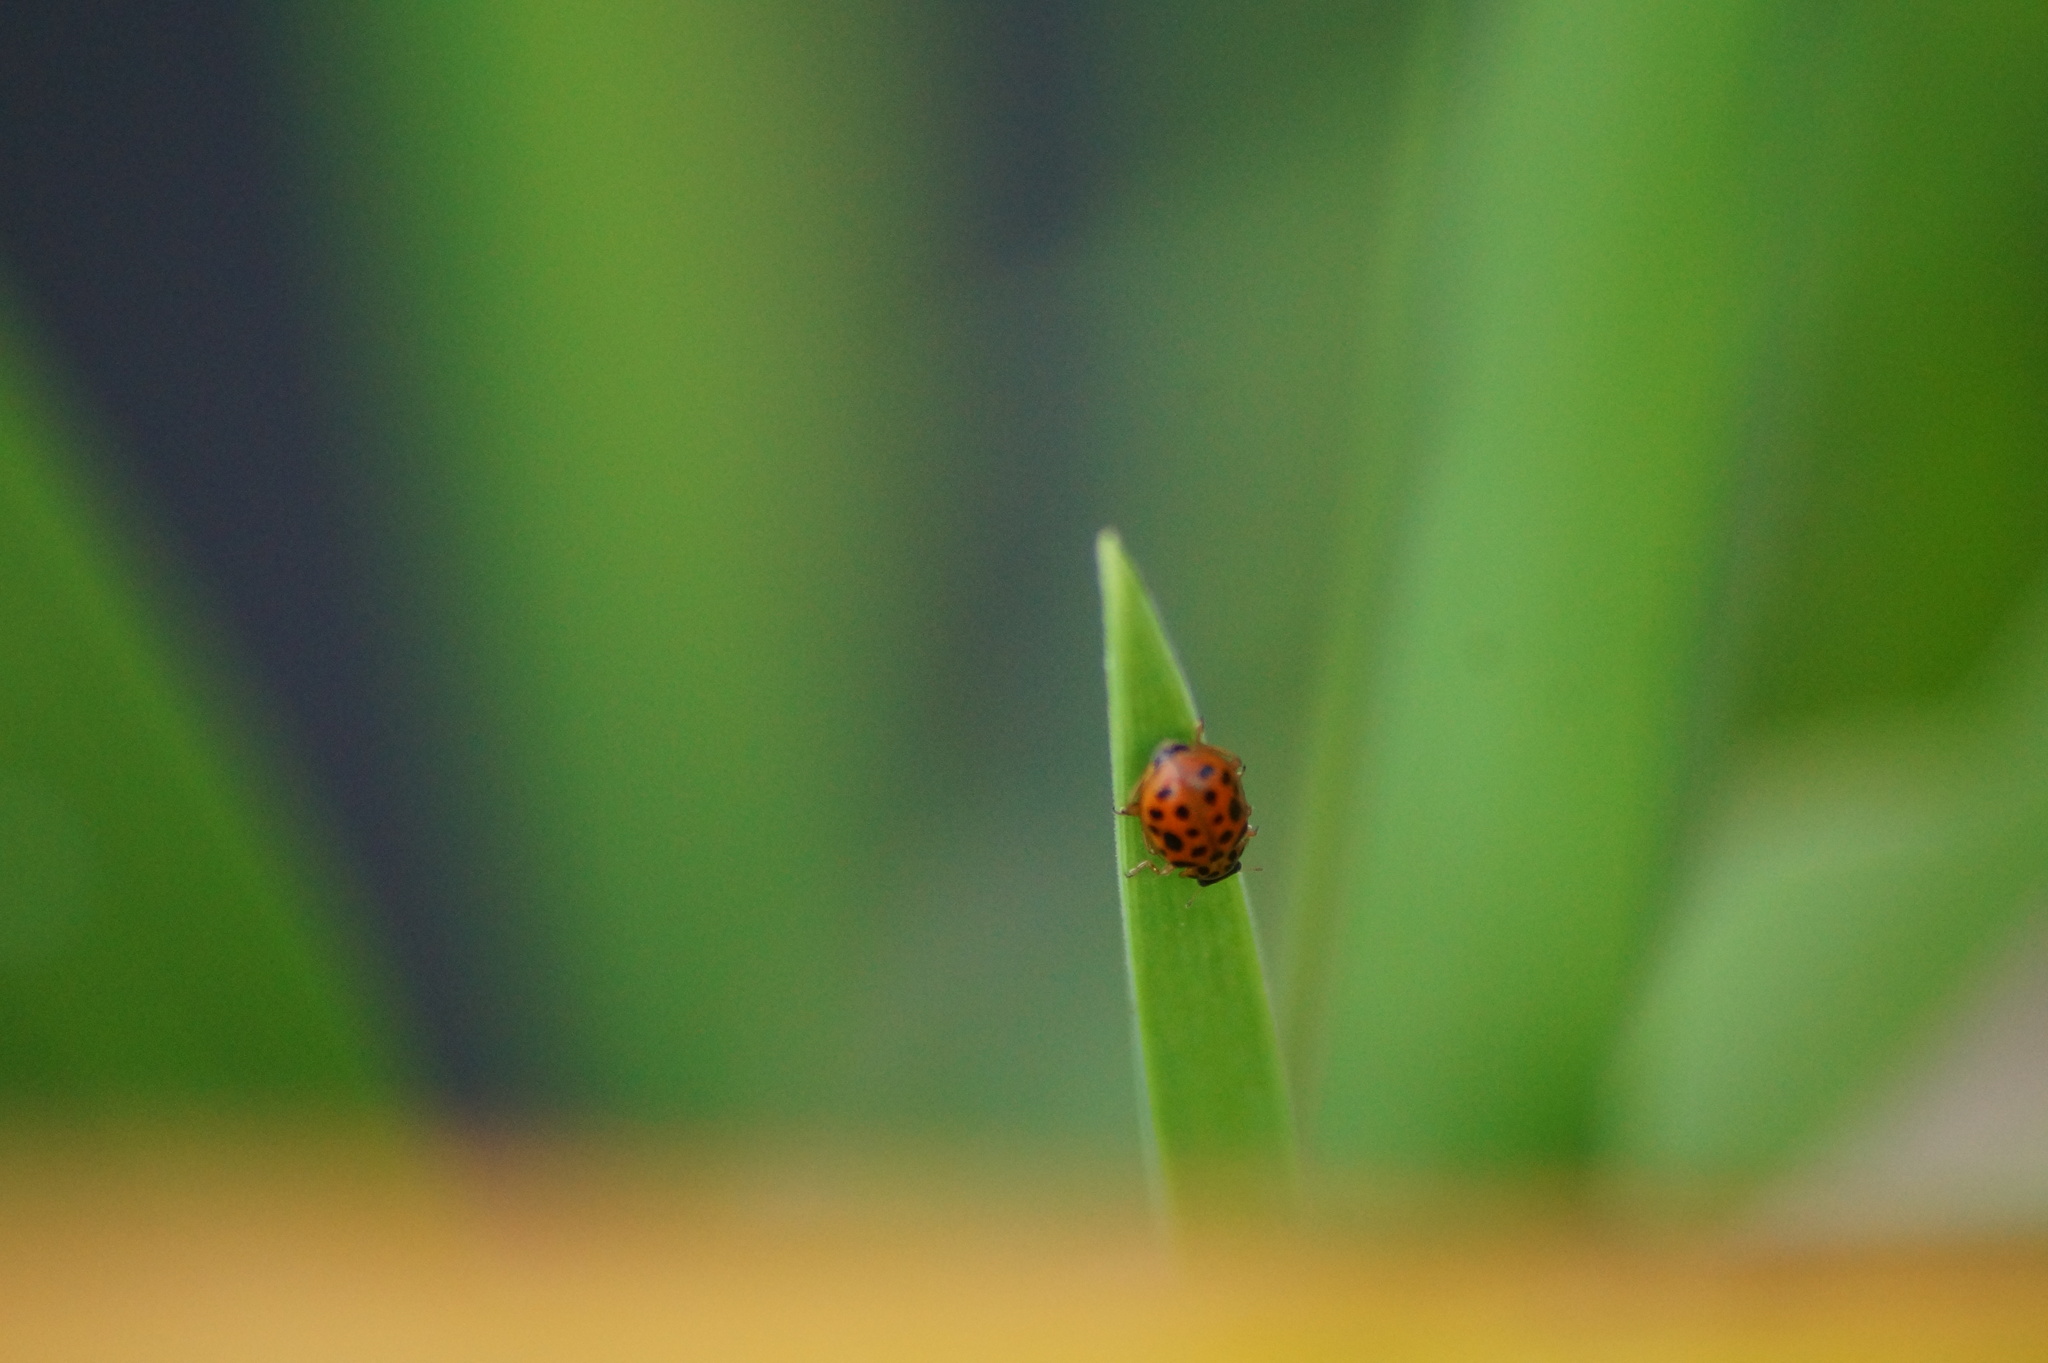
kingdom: Animalia
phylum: Arthropoda
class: Insecta
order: Coleoptera
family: Coccinellidae
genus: Anisosticta
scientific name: Anisosticta novemdecimpunctata
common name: Water ladybird
